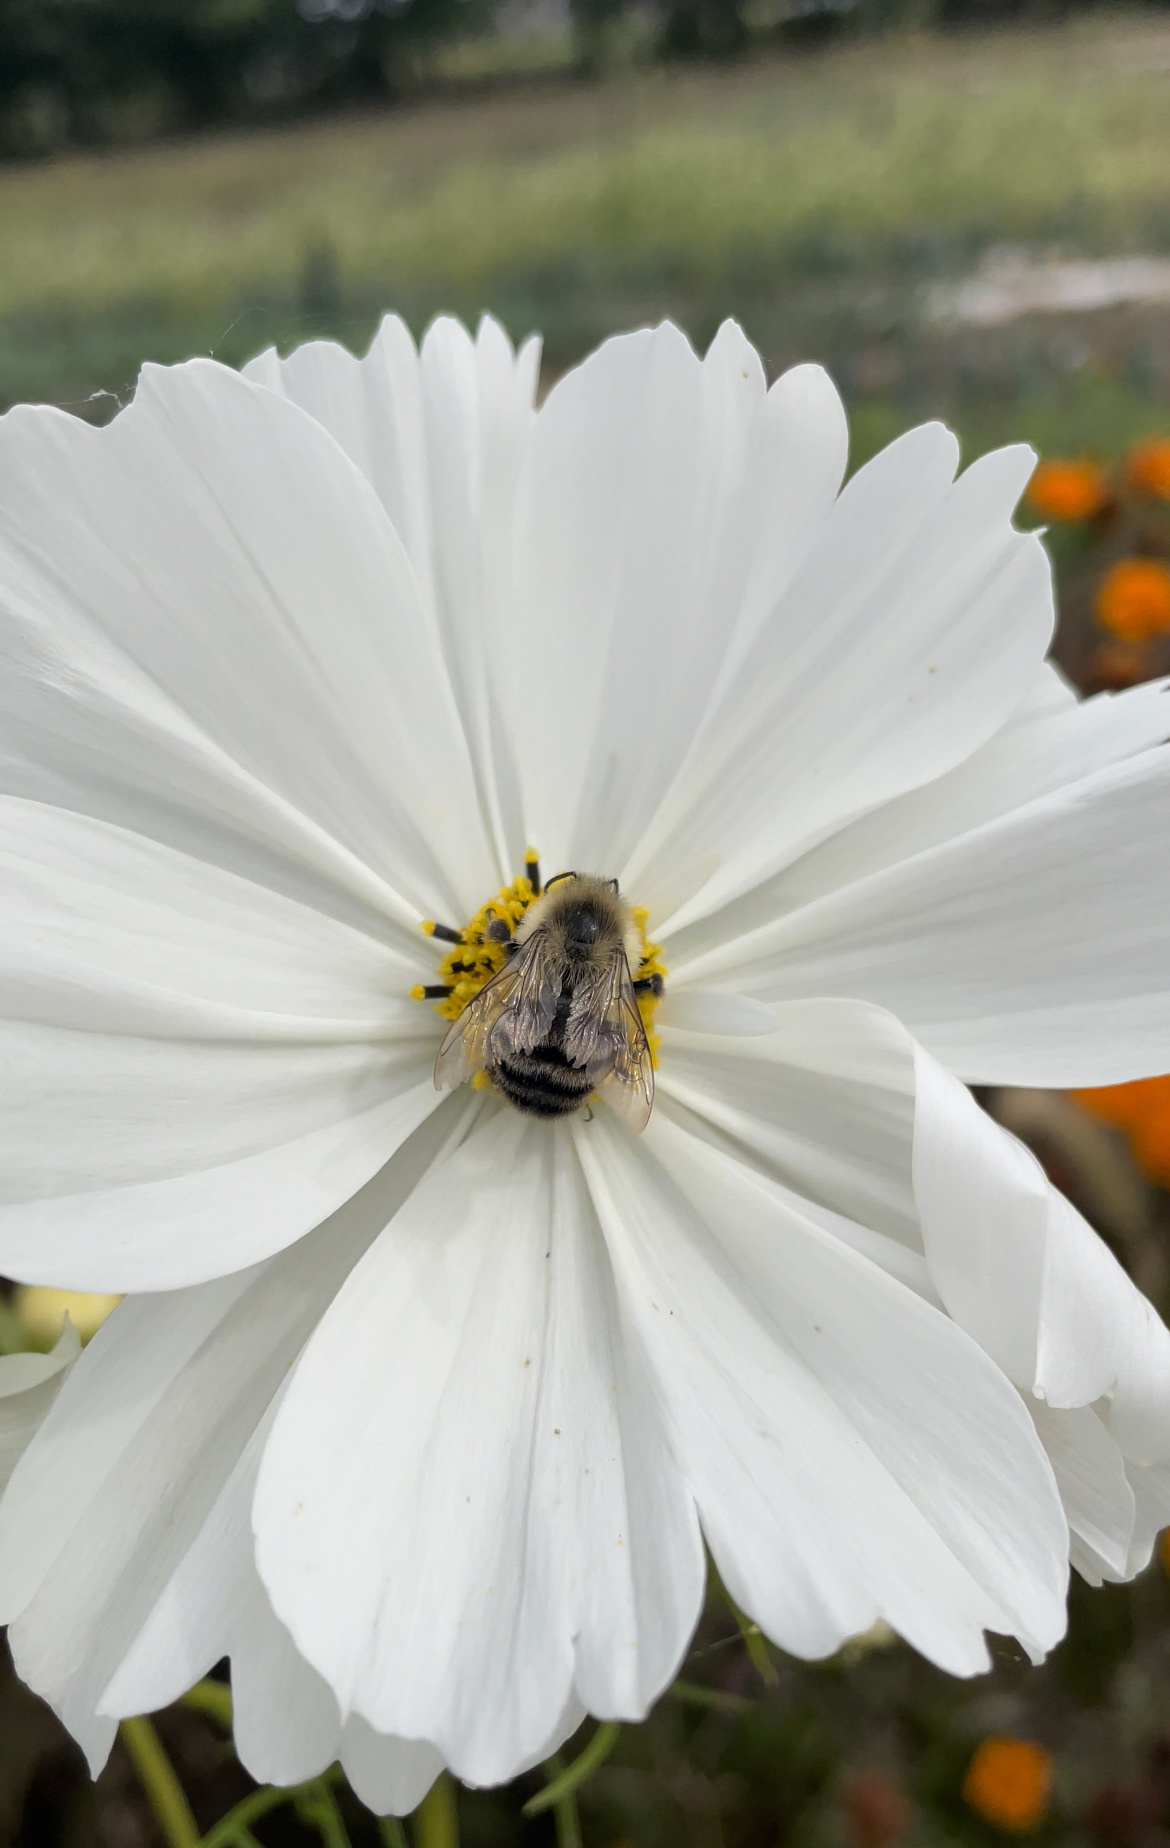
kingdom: Animalia
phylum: Arthropoda
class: Insecta
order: Hymenoptera
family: Apidae
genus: Bombus
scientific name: Bombus impatiens
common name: Common eastern bumble bee
